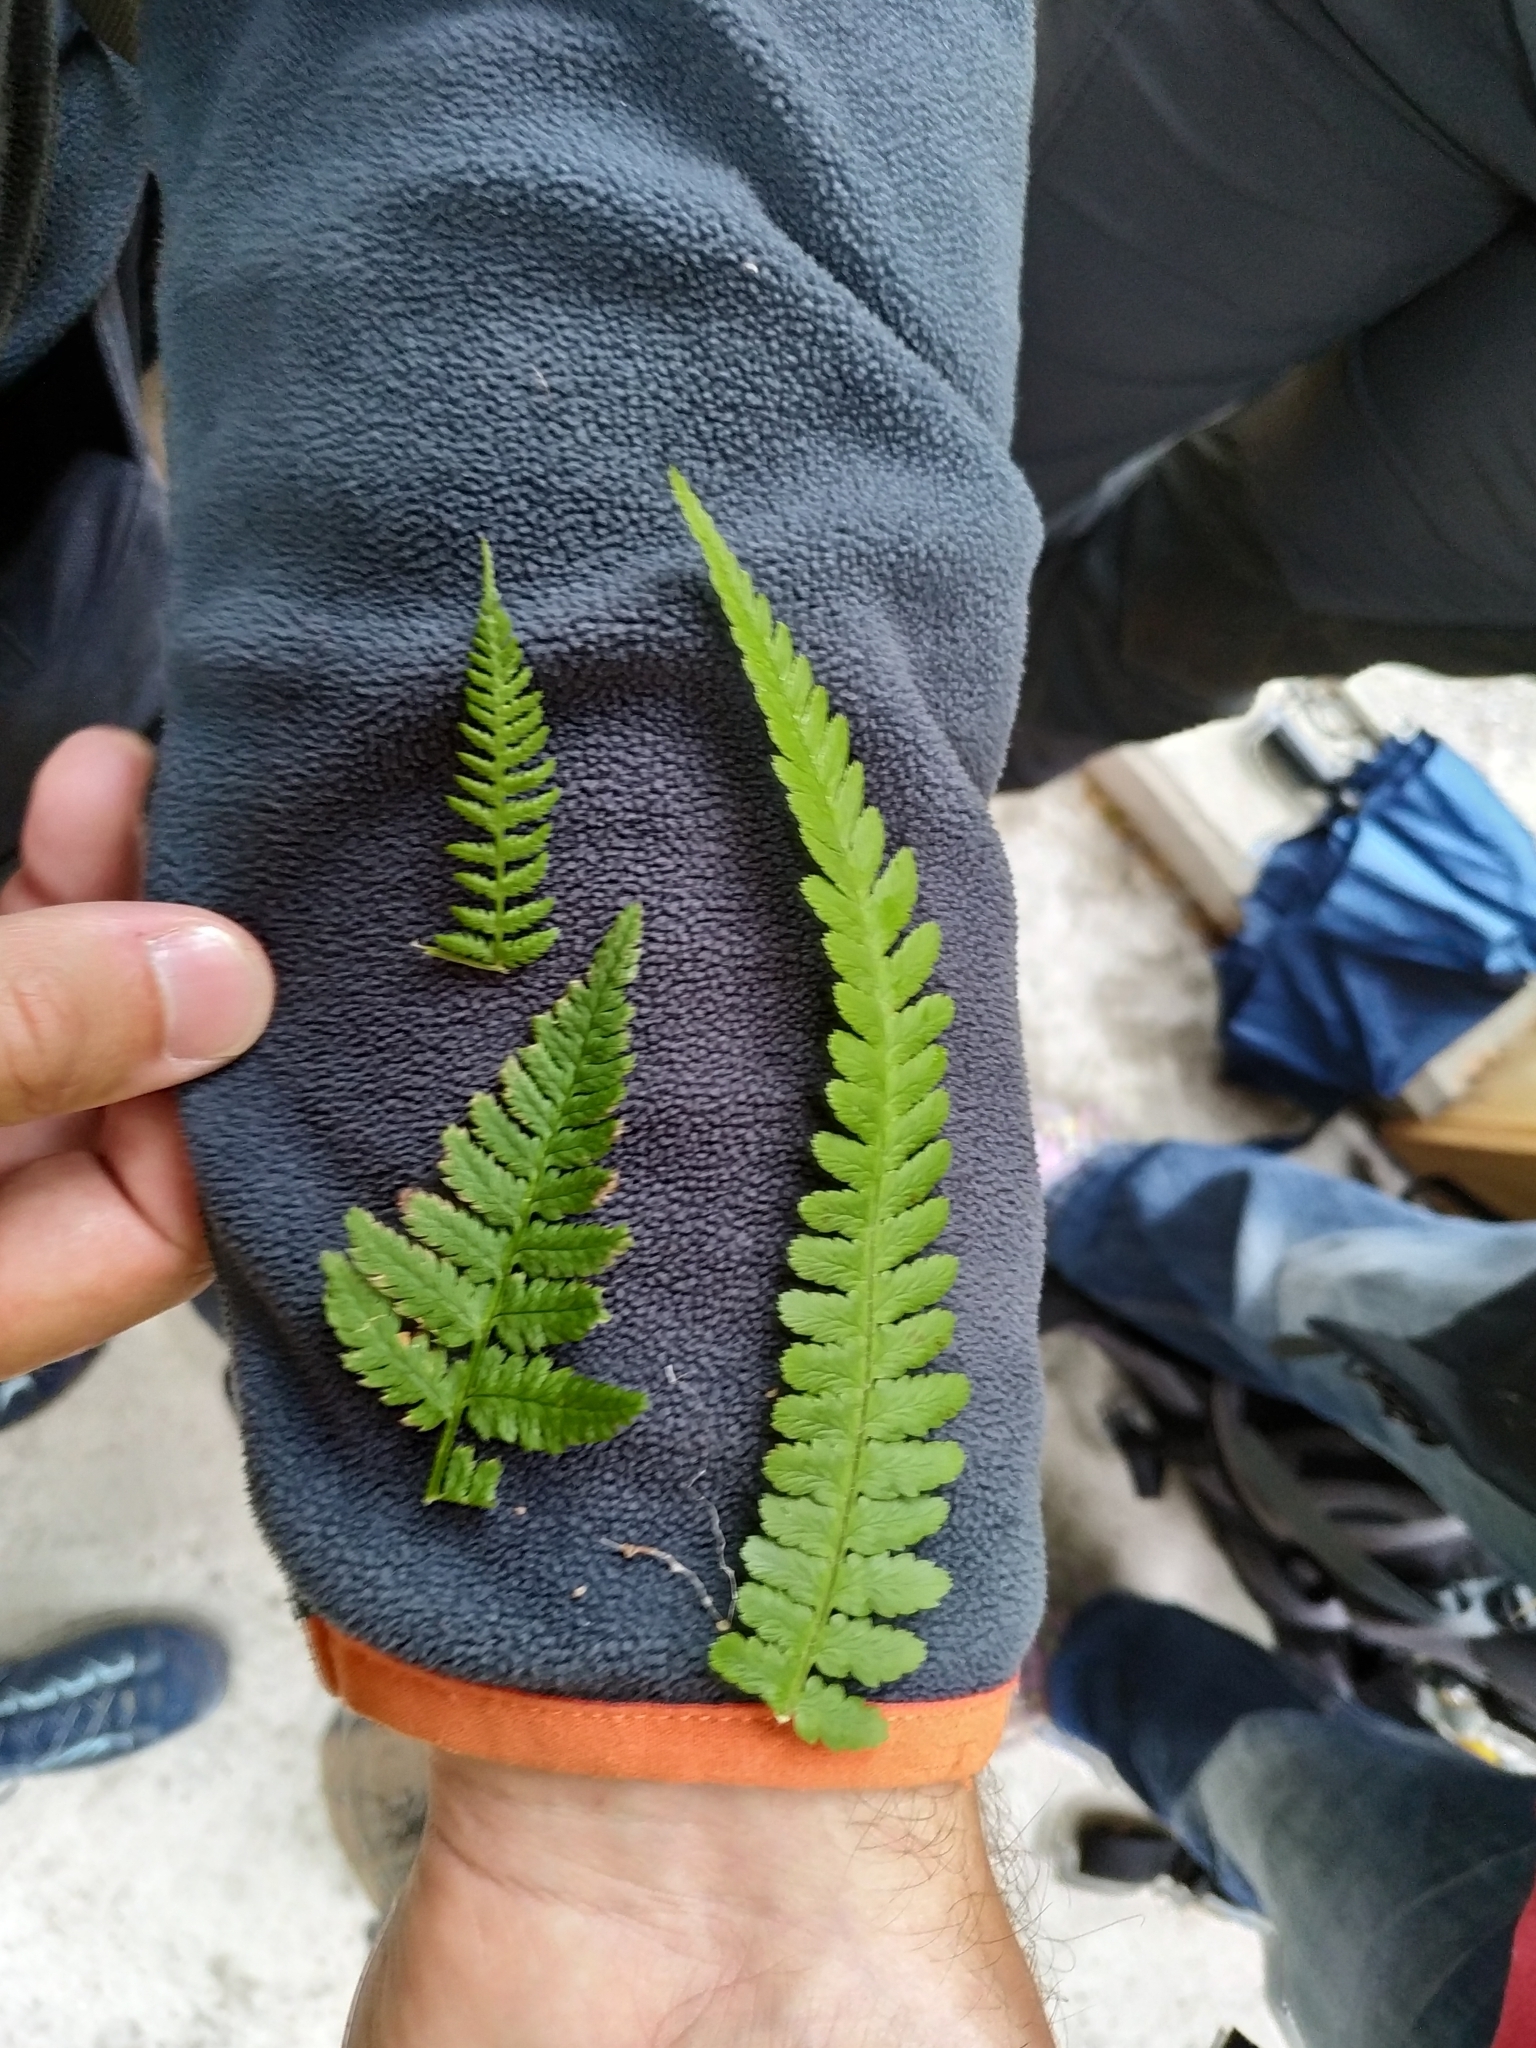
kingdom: Plantae
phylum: Tracheophyta
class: Polypodiopsida
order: Polypodiales
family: Athyriaceae
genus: Athyrium
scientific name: Athyrium filix-femina
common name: Lady fern
